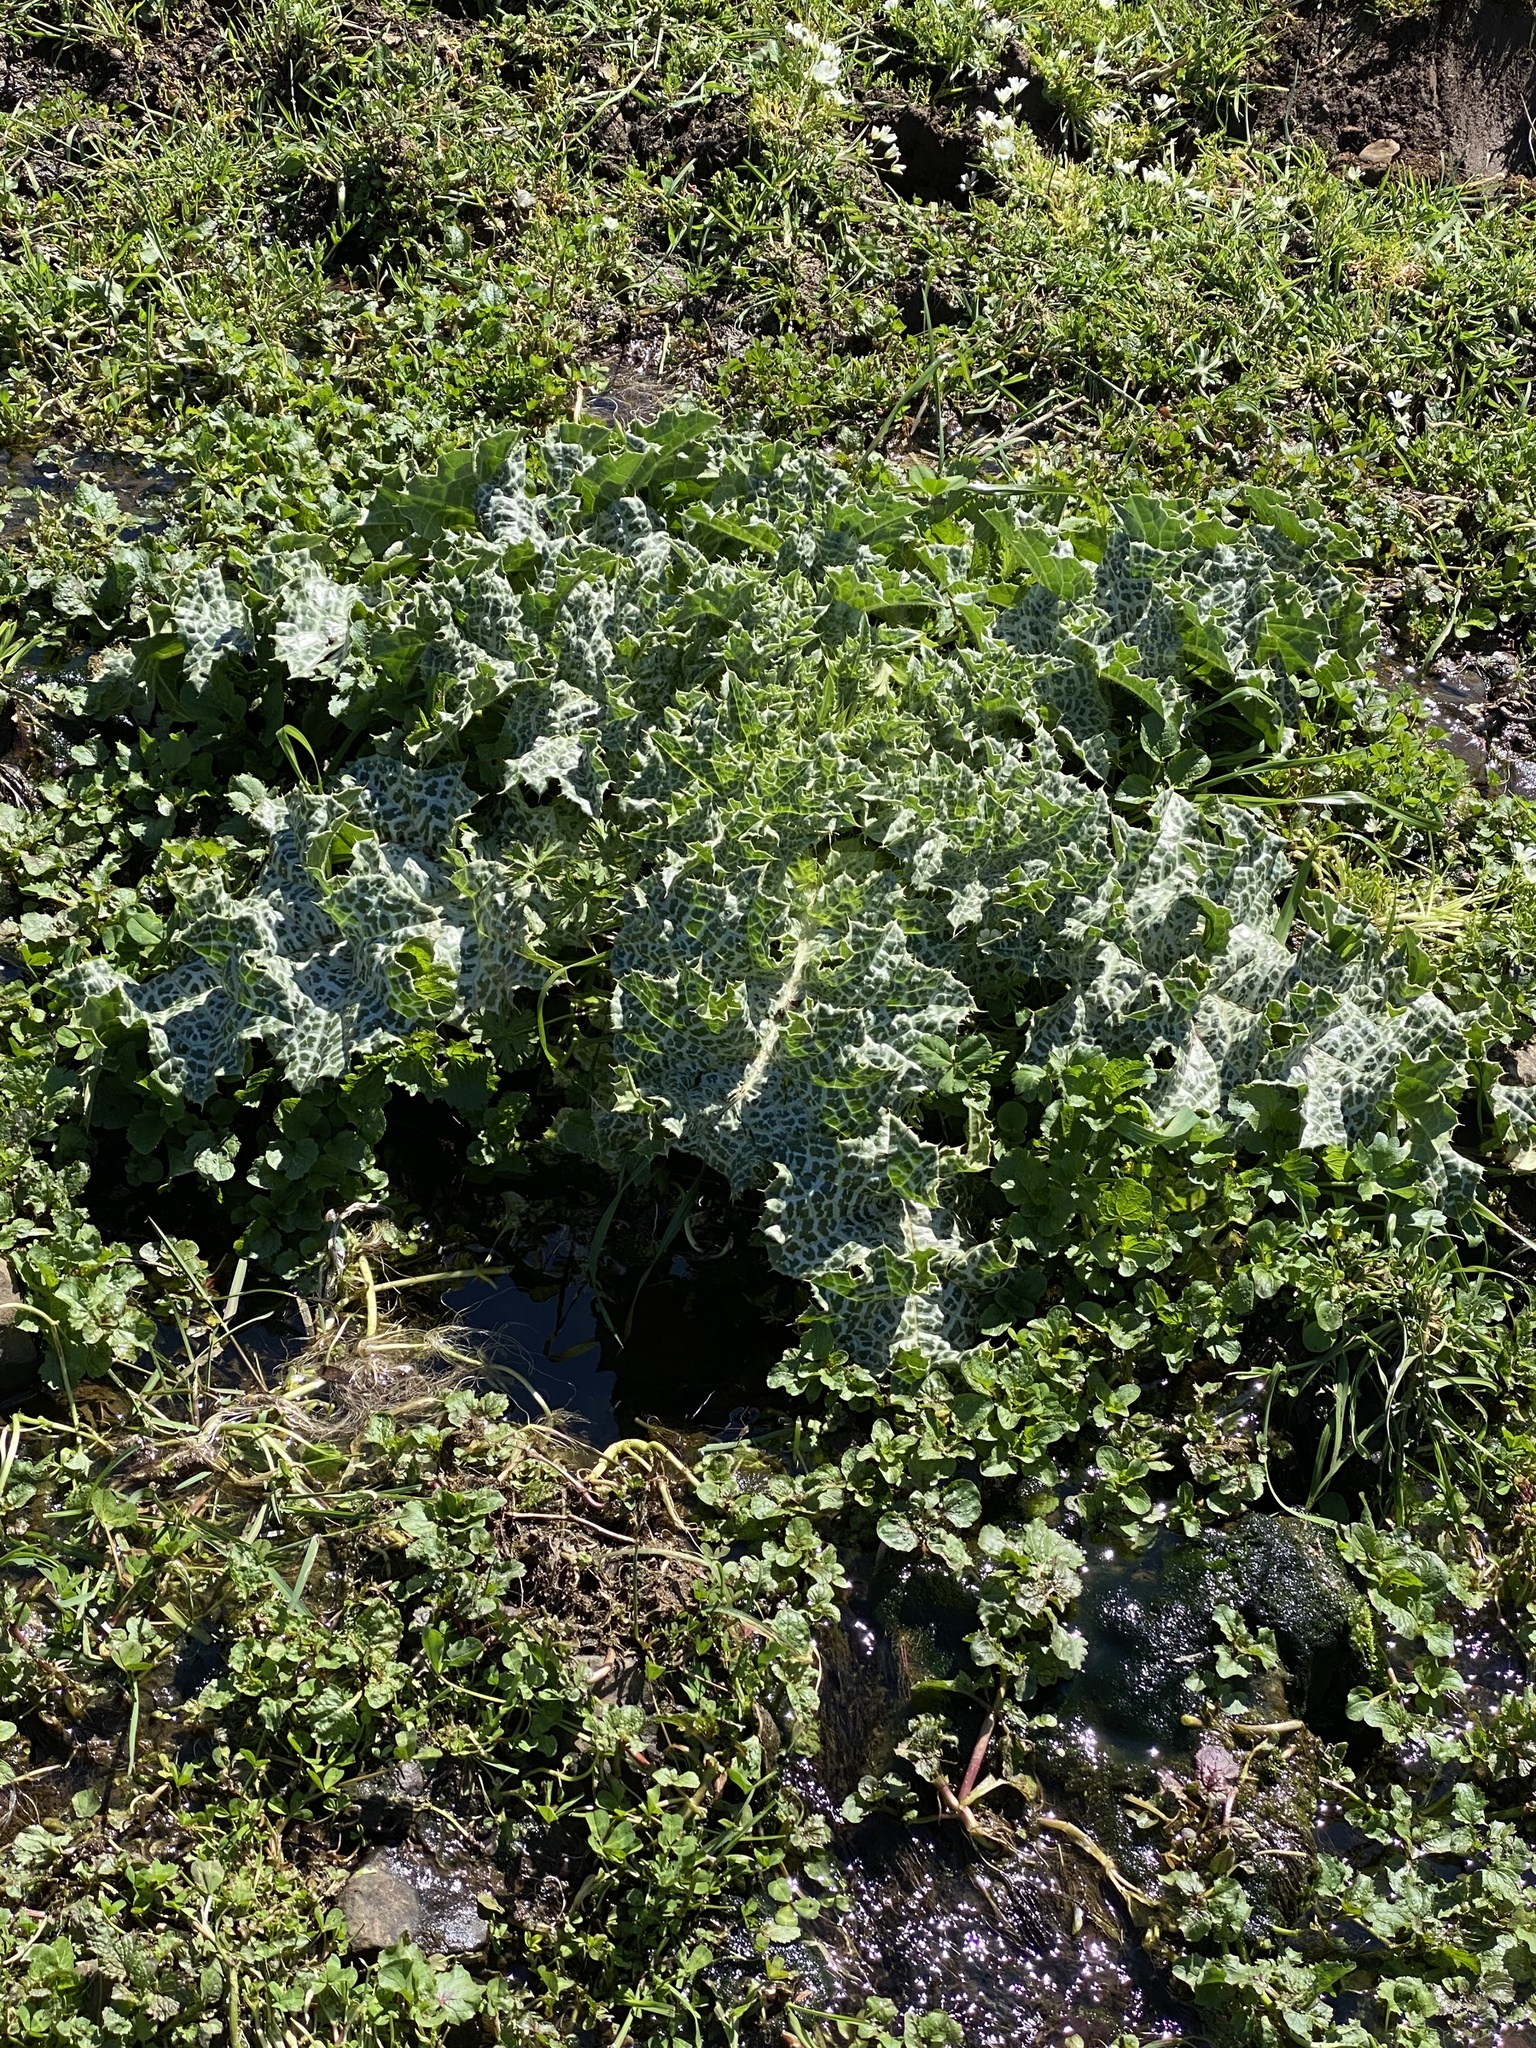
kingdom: Plantae
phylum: Tracheophyta
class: Magnoliopsida
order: Asterales
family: Asteraceae
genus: Silybum
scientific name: Silybum marianum
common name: Milk thistle
